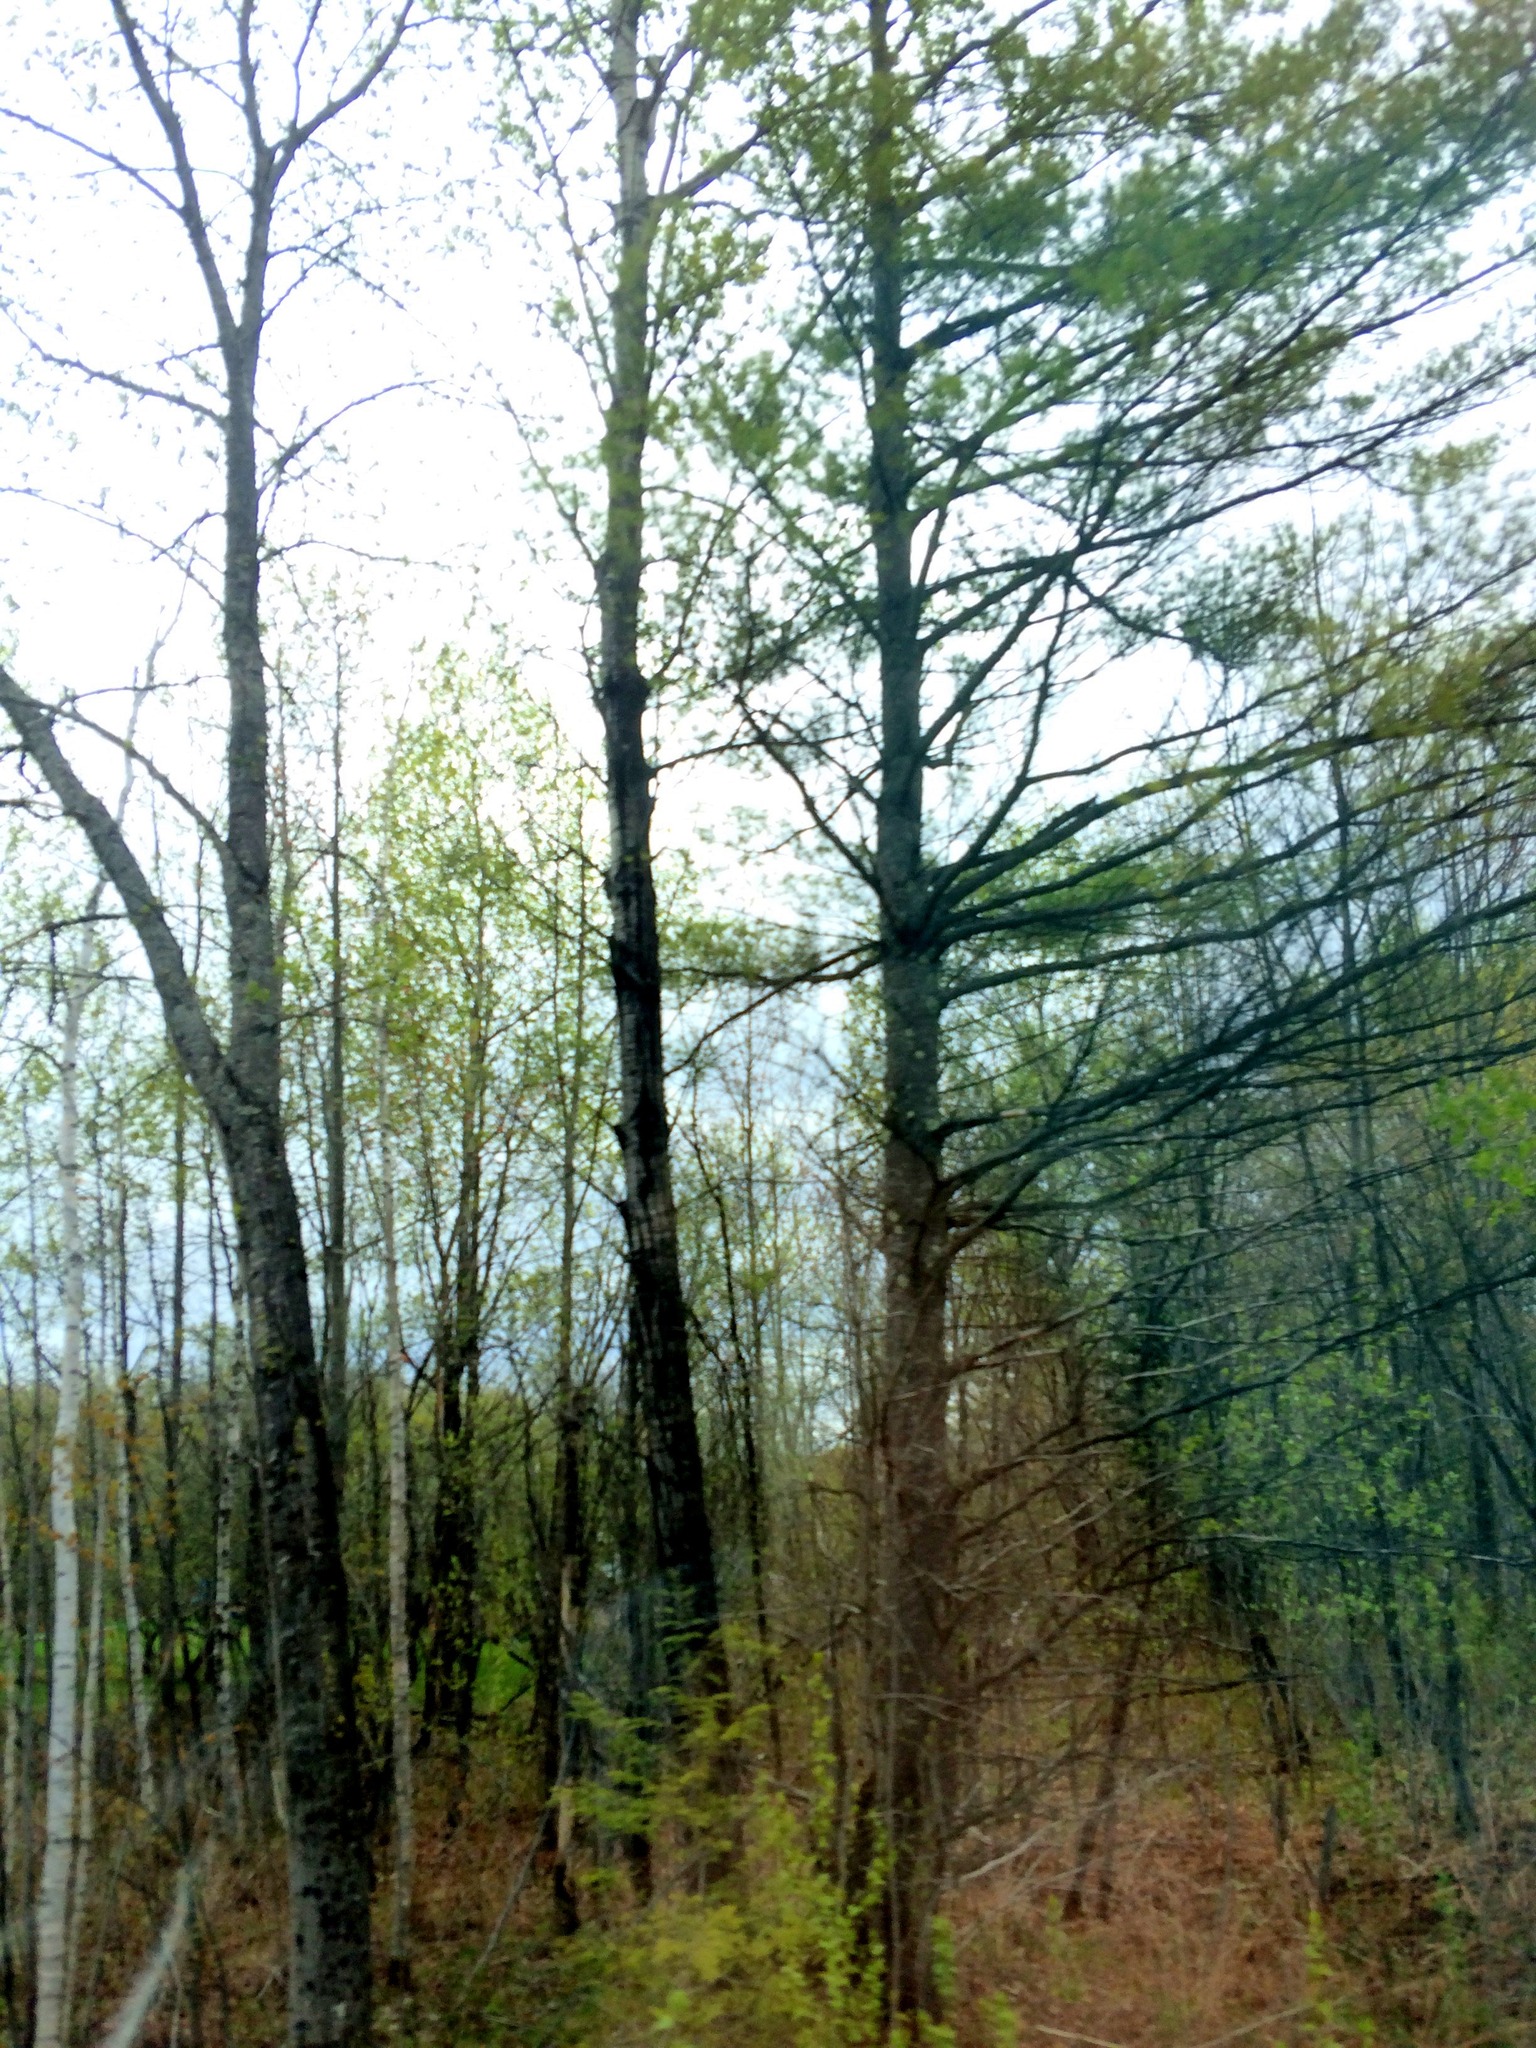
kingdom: Plantae
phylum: Tracheophyta
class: Pinopsida
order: Pinales
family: Pinaceae
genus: Pinus
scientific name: Pinus strobus
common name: Weymouth pine
